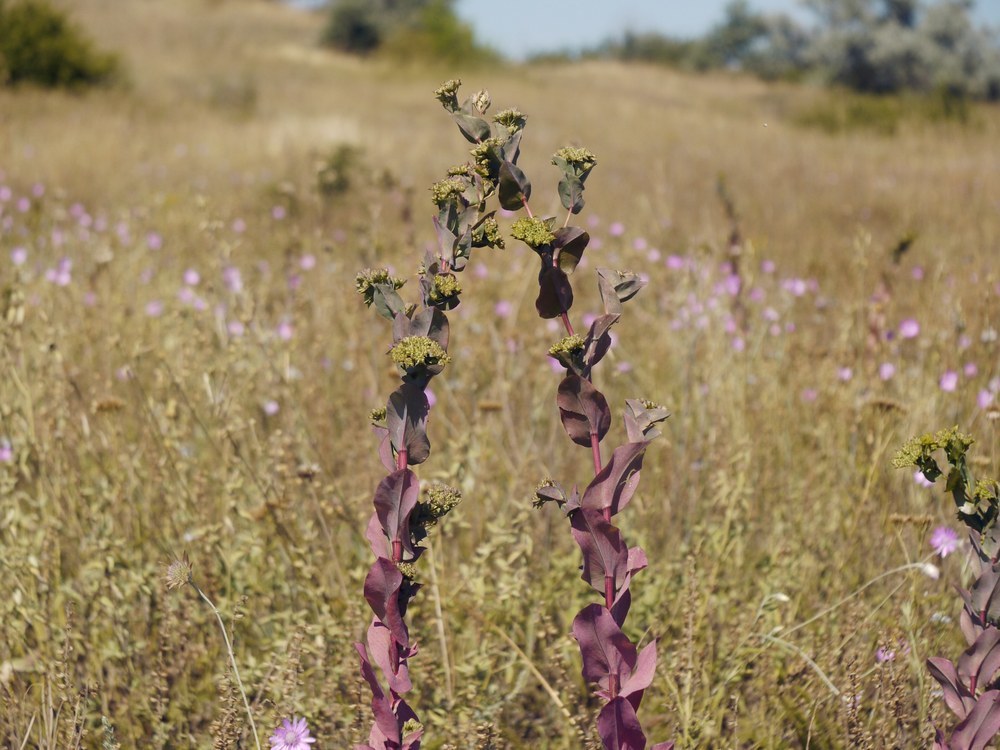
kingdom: Plantae
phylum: Tracheophyta
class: Magnoliopsida
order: Apiales
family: Apiaceae
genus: Bupleurum
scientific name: Bupleurum rotundifolium
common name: Thorow-wax
